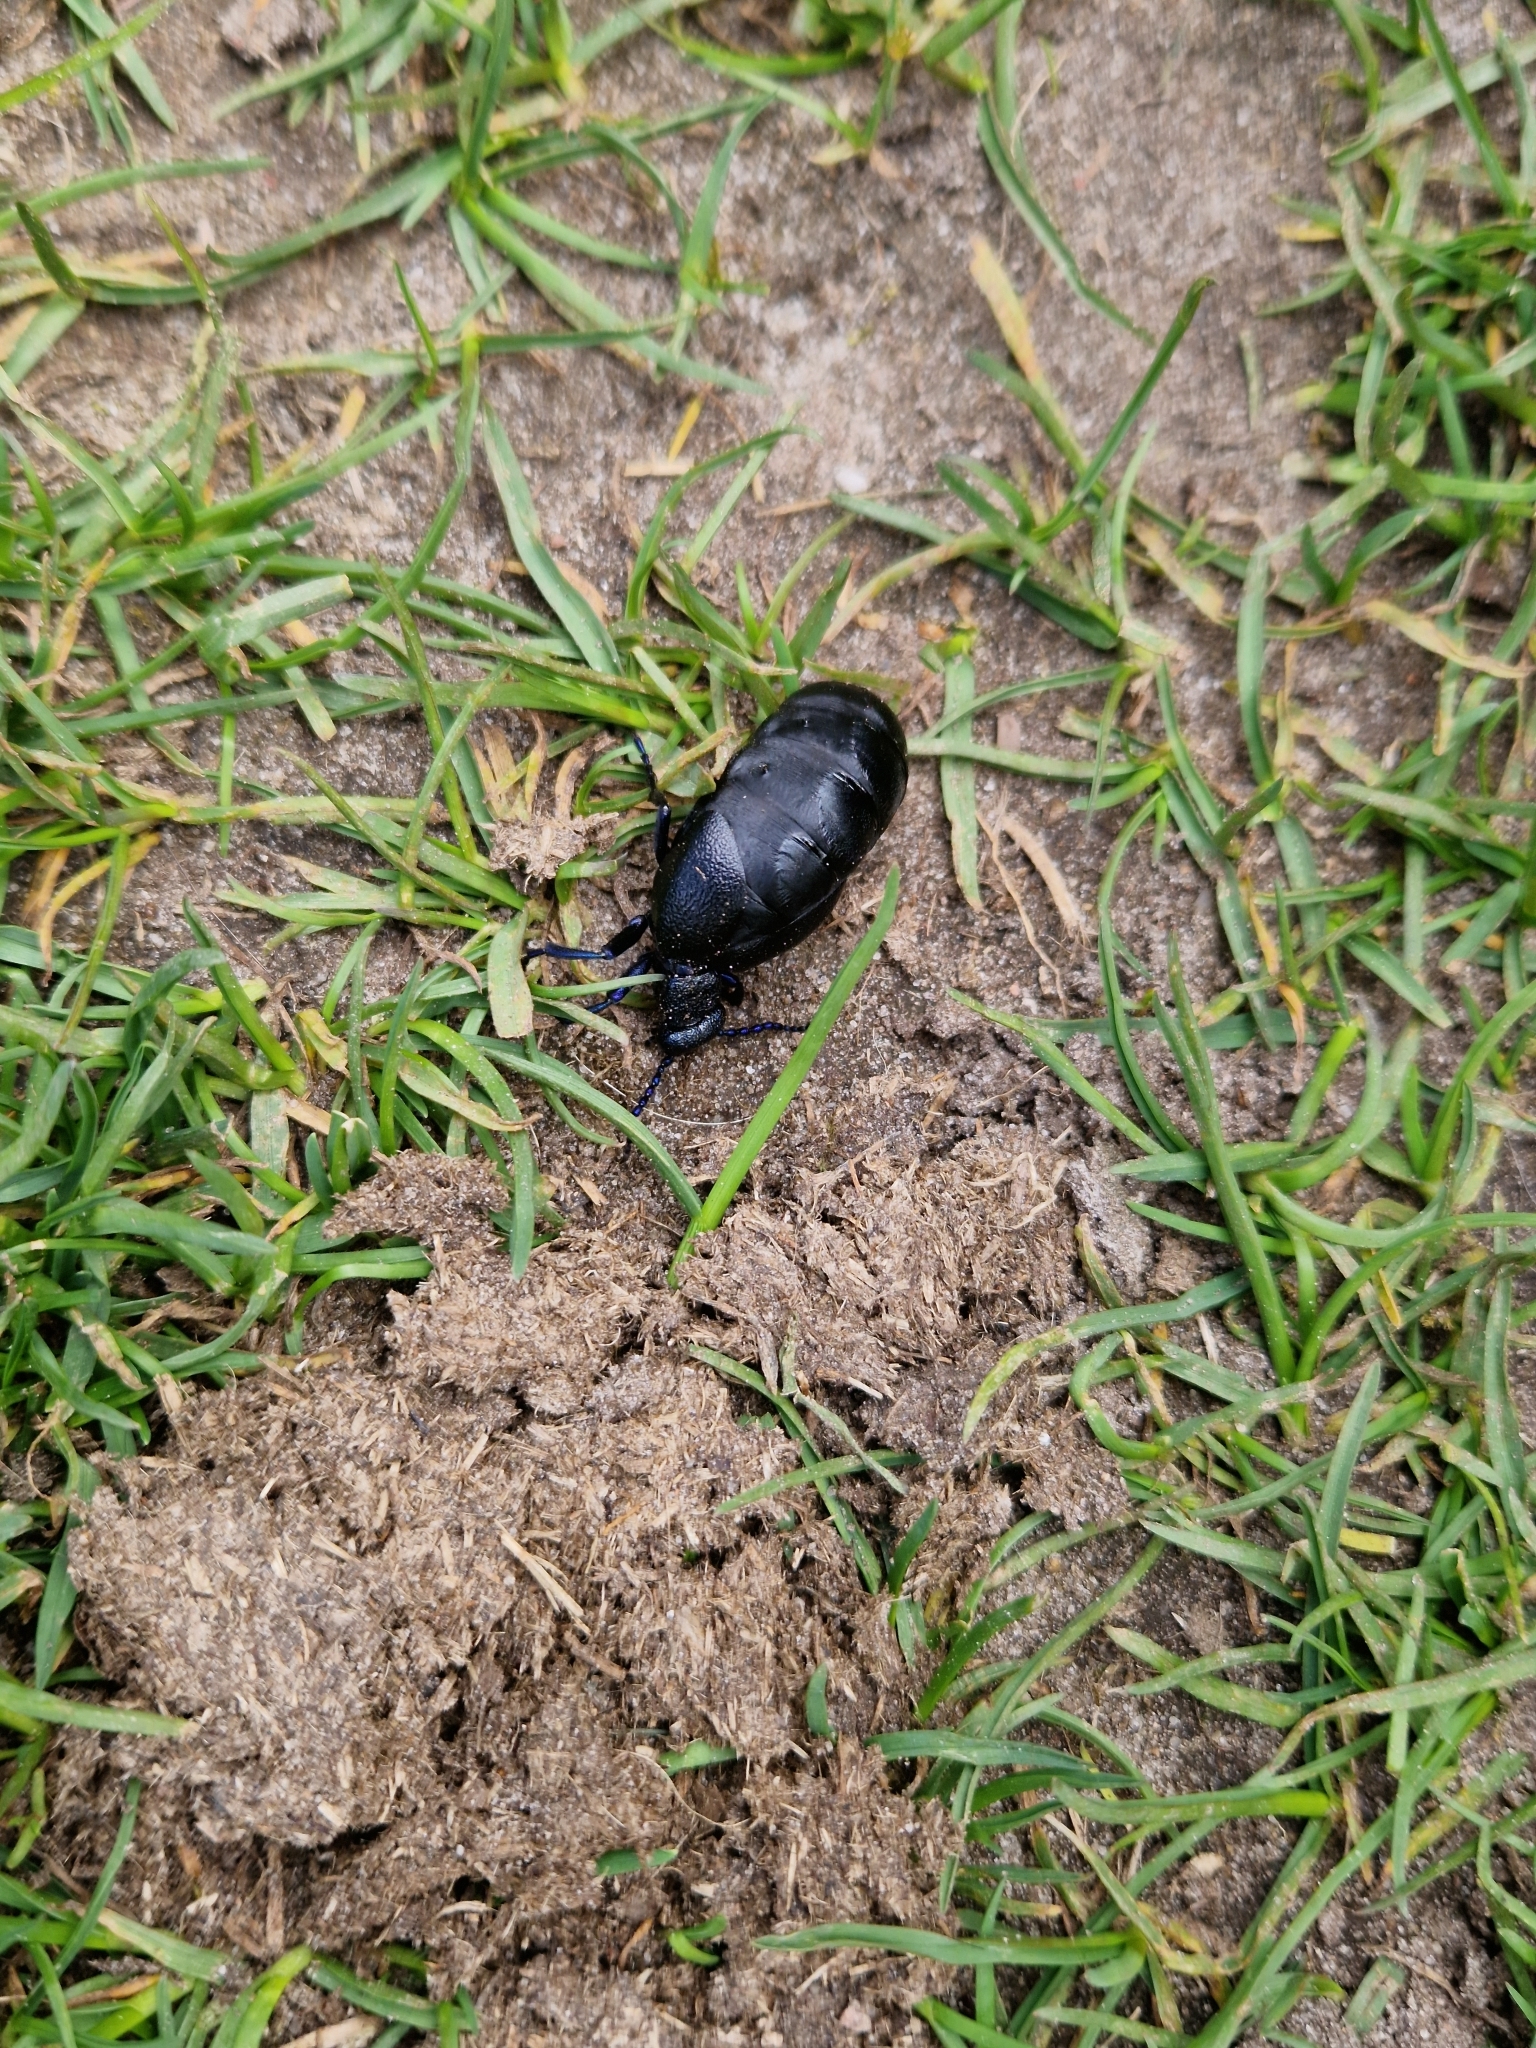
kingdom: Animalia
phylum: Arthropoda
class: Insecta
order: Coleoptera
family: Meloidae
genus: Meloe
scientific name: Meloe proscarabaeus
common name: Black oil-beetle
